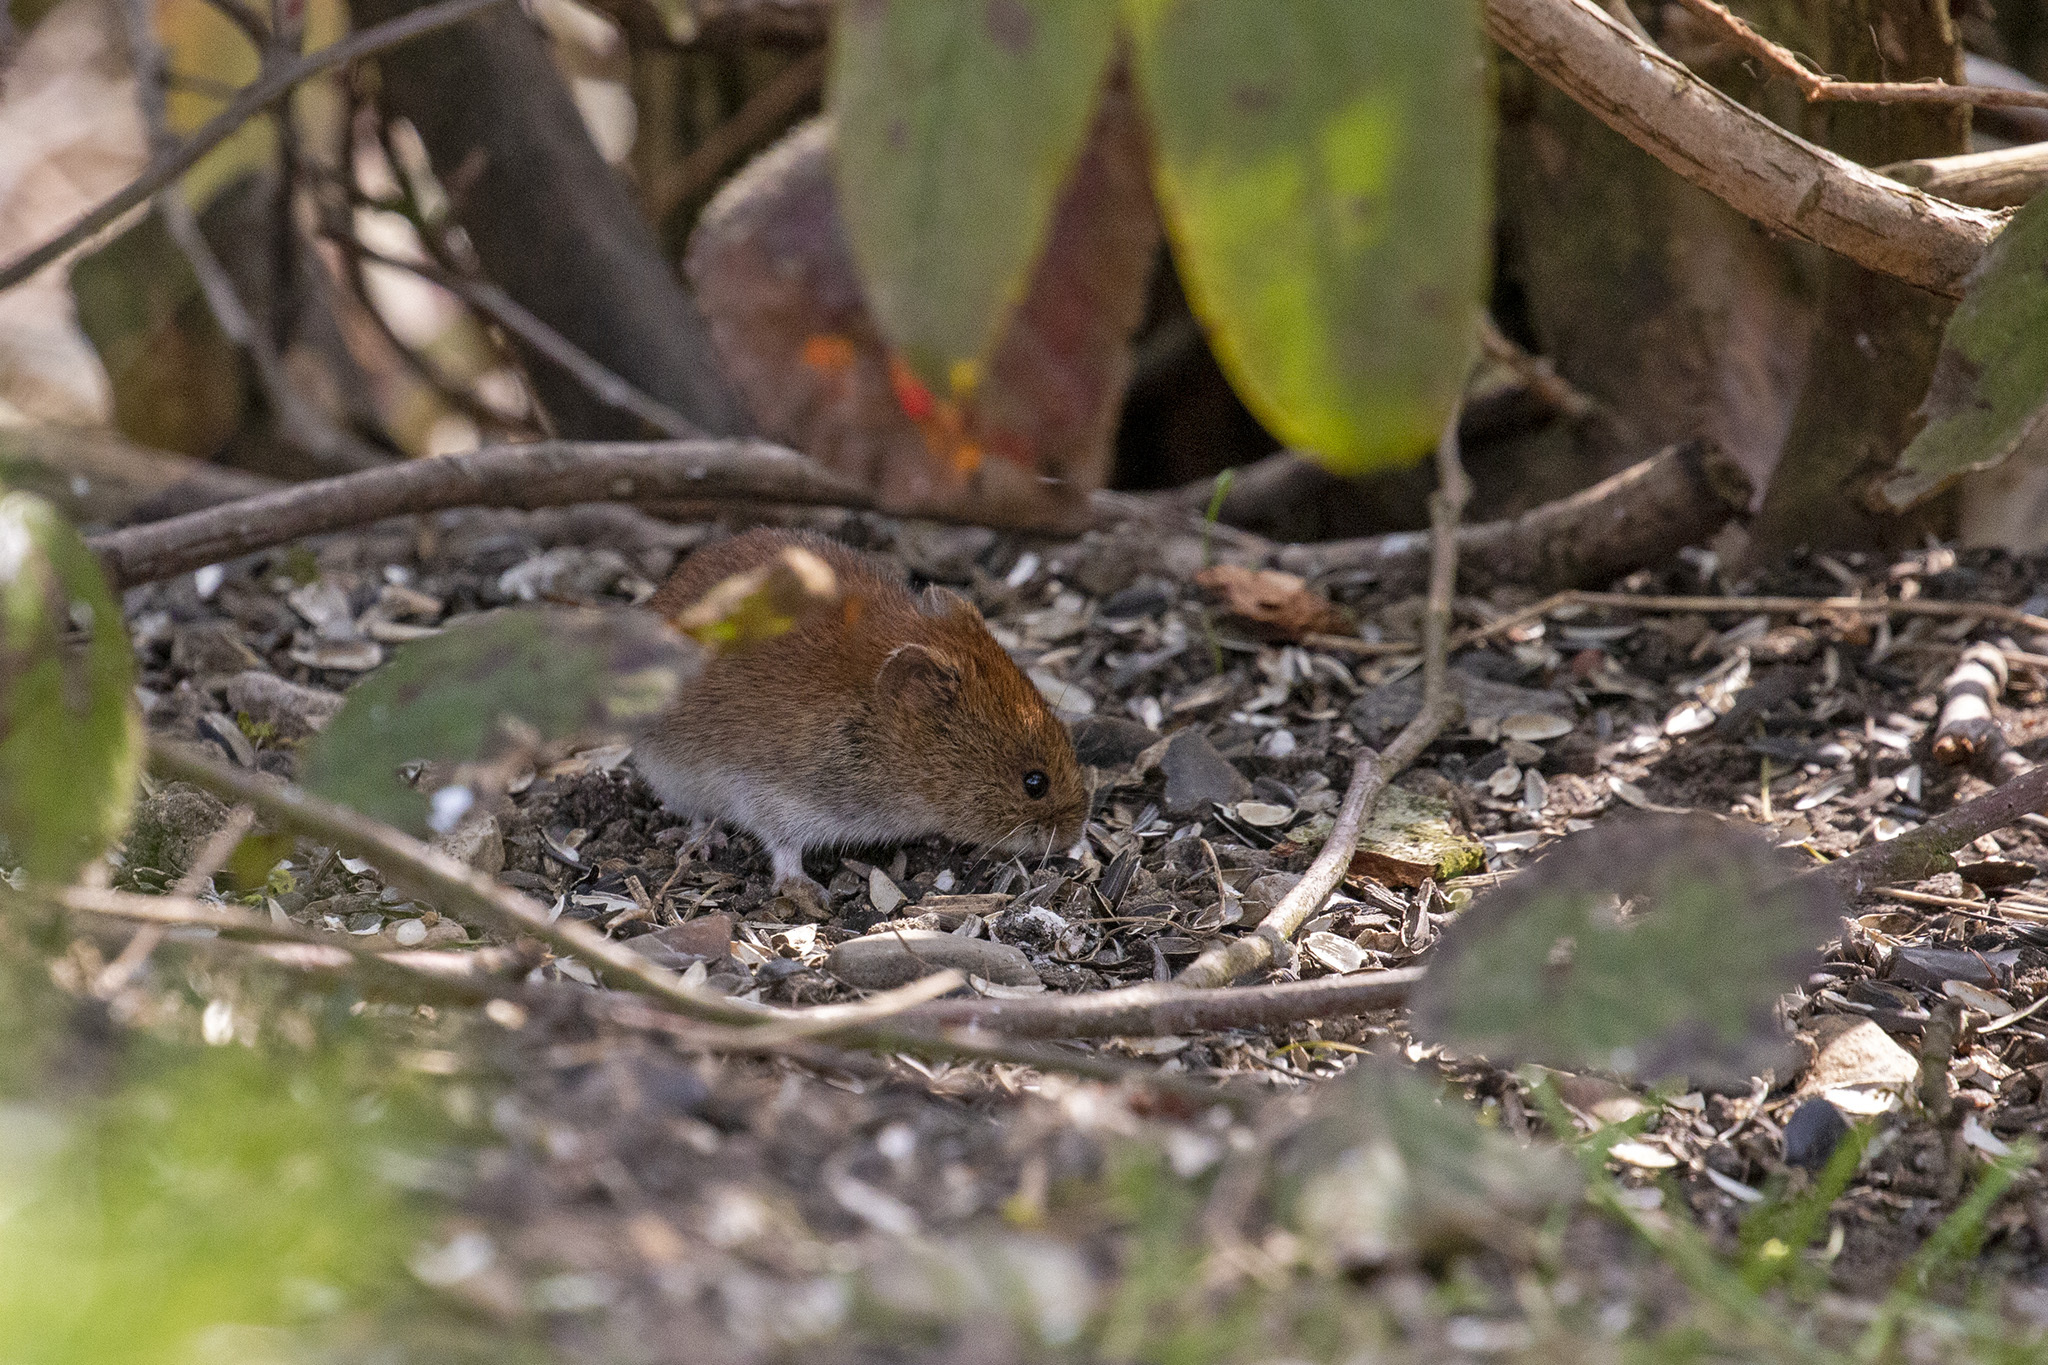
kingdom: Animalia
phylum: Chordata
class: Mammalia
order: Rodentia
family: Cricetidae
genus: Myodes
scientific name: Myodes glareolus
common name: Bank vole
